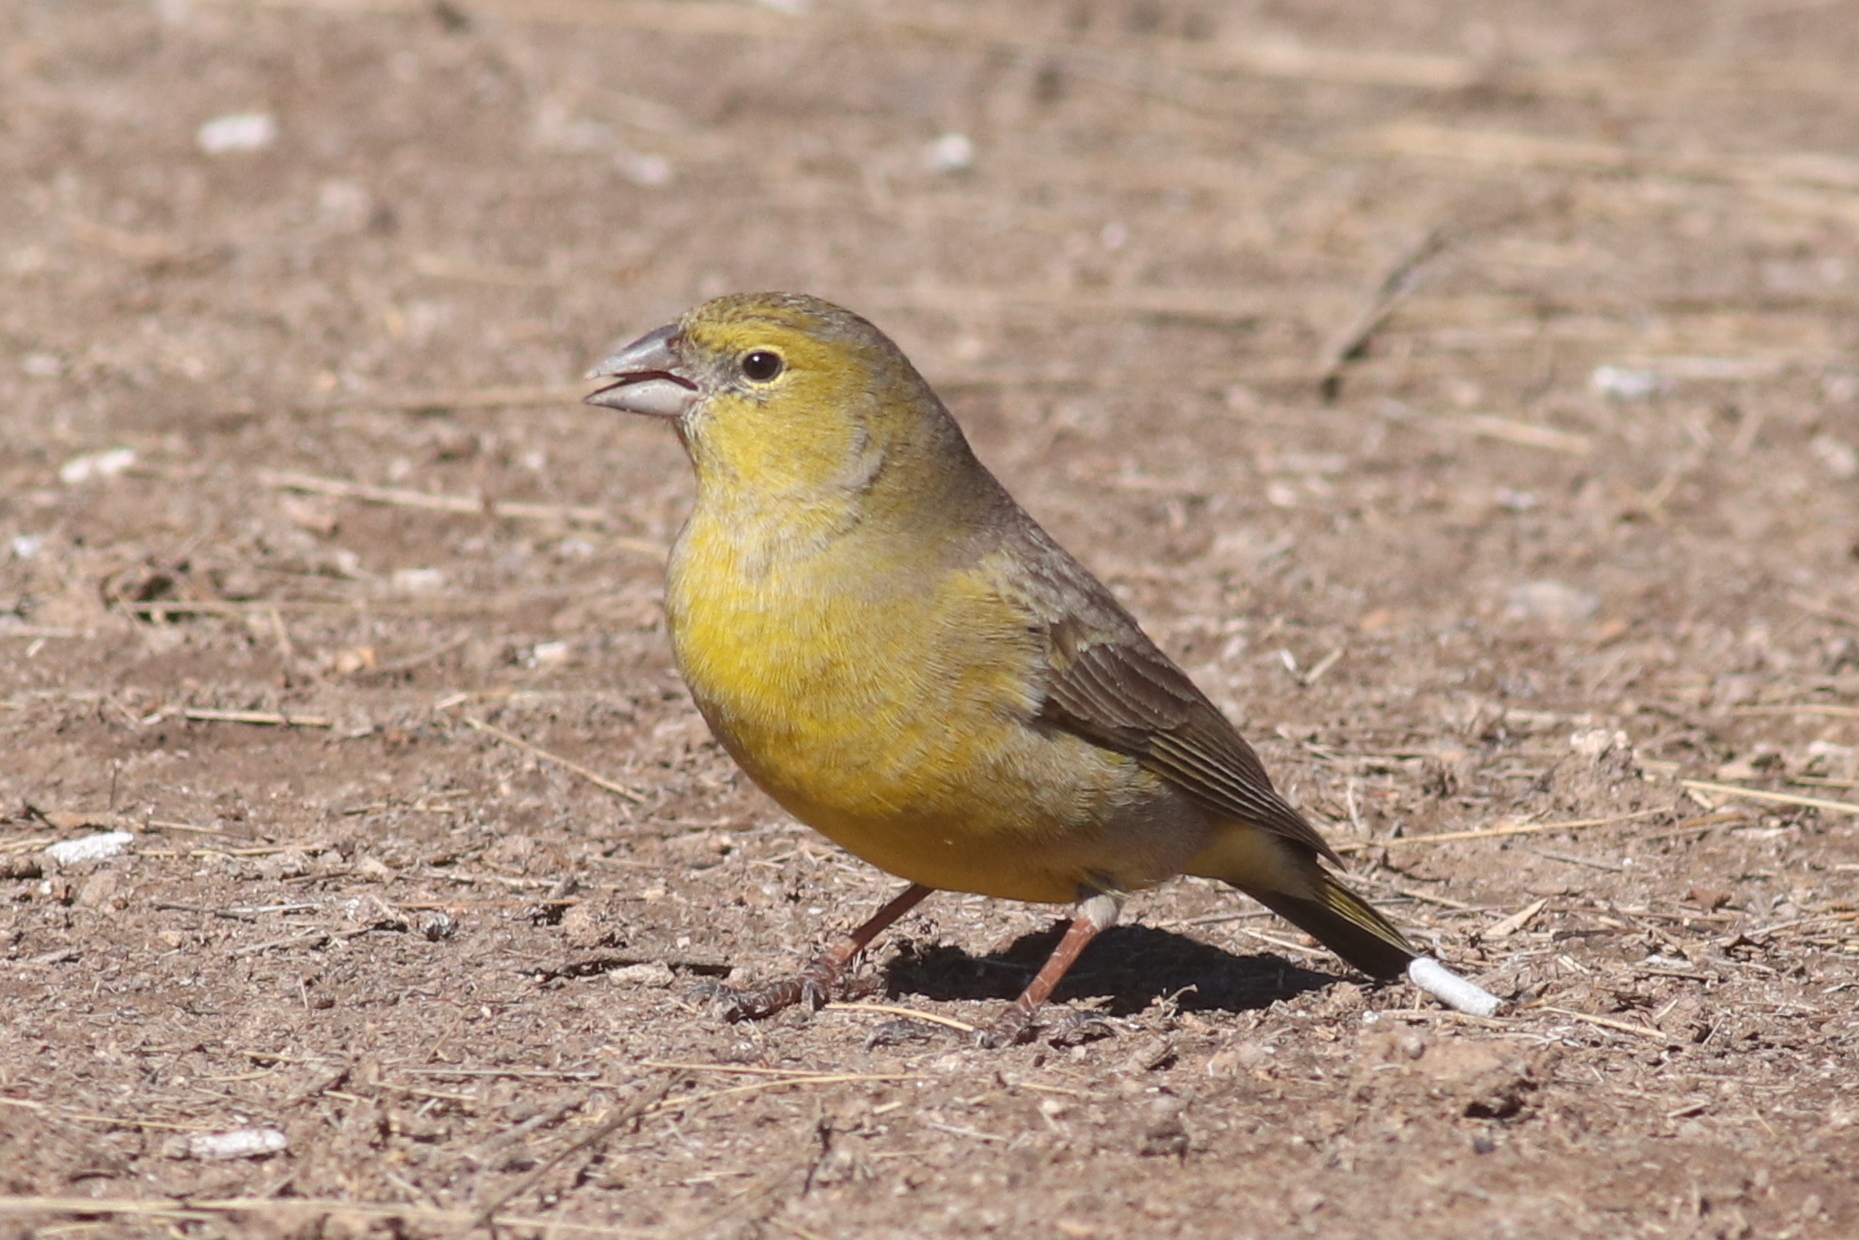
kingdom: Animalia
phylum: Chordata
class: Aves
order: Passeriformes
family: Thraupidae
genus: Sicalis
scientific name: Sicalis olivascens
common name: Greenish yellow finch
